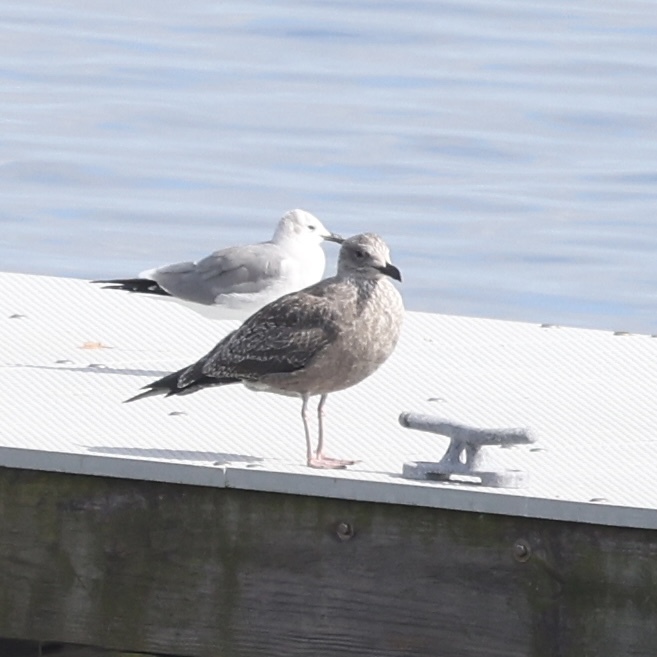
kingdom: Animalia
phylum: Chordata
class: Aves
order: Charadriiformes
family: Laridae
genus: Larus
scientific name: Larus smithsonianus
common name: American herring gull
